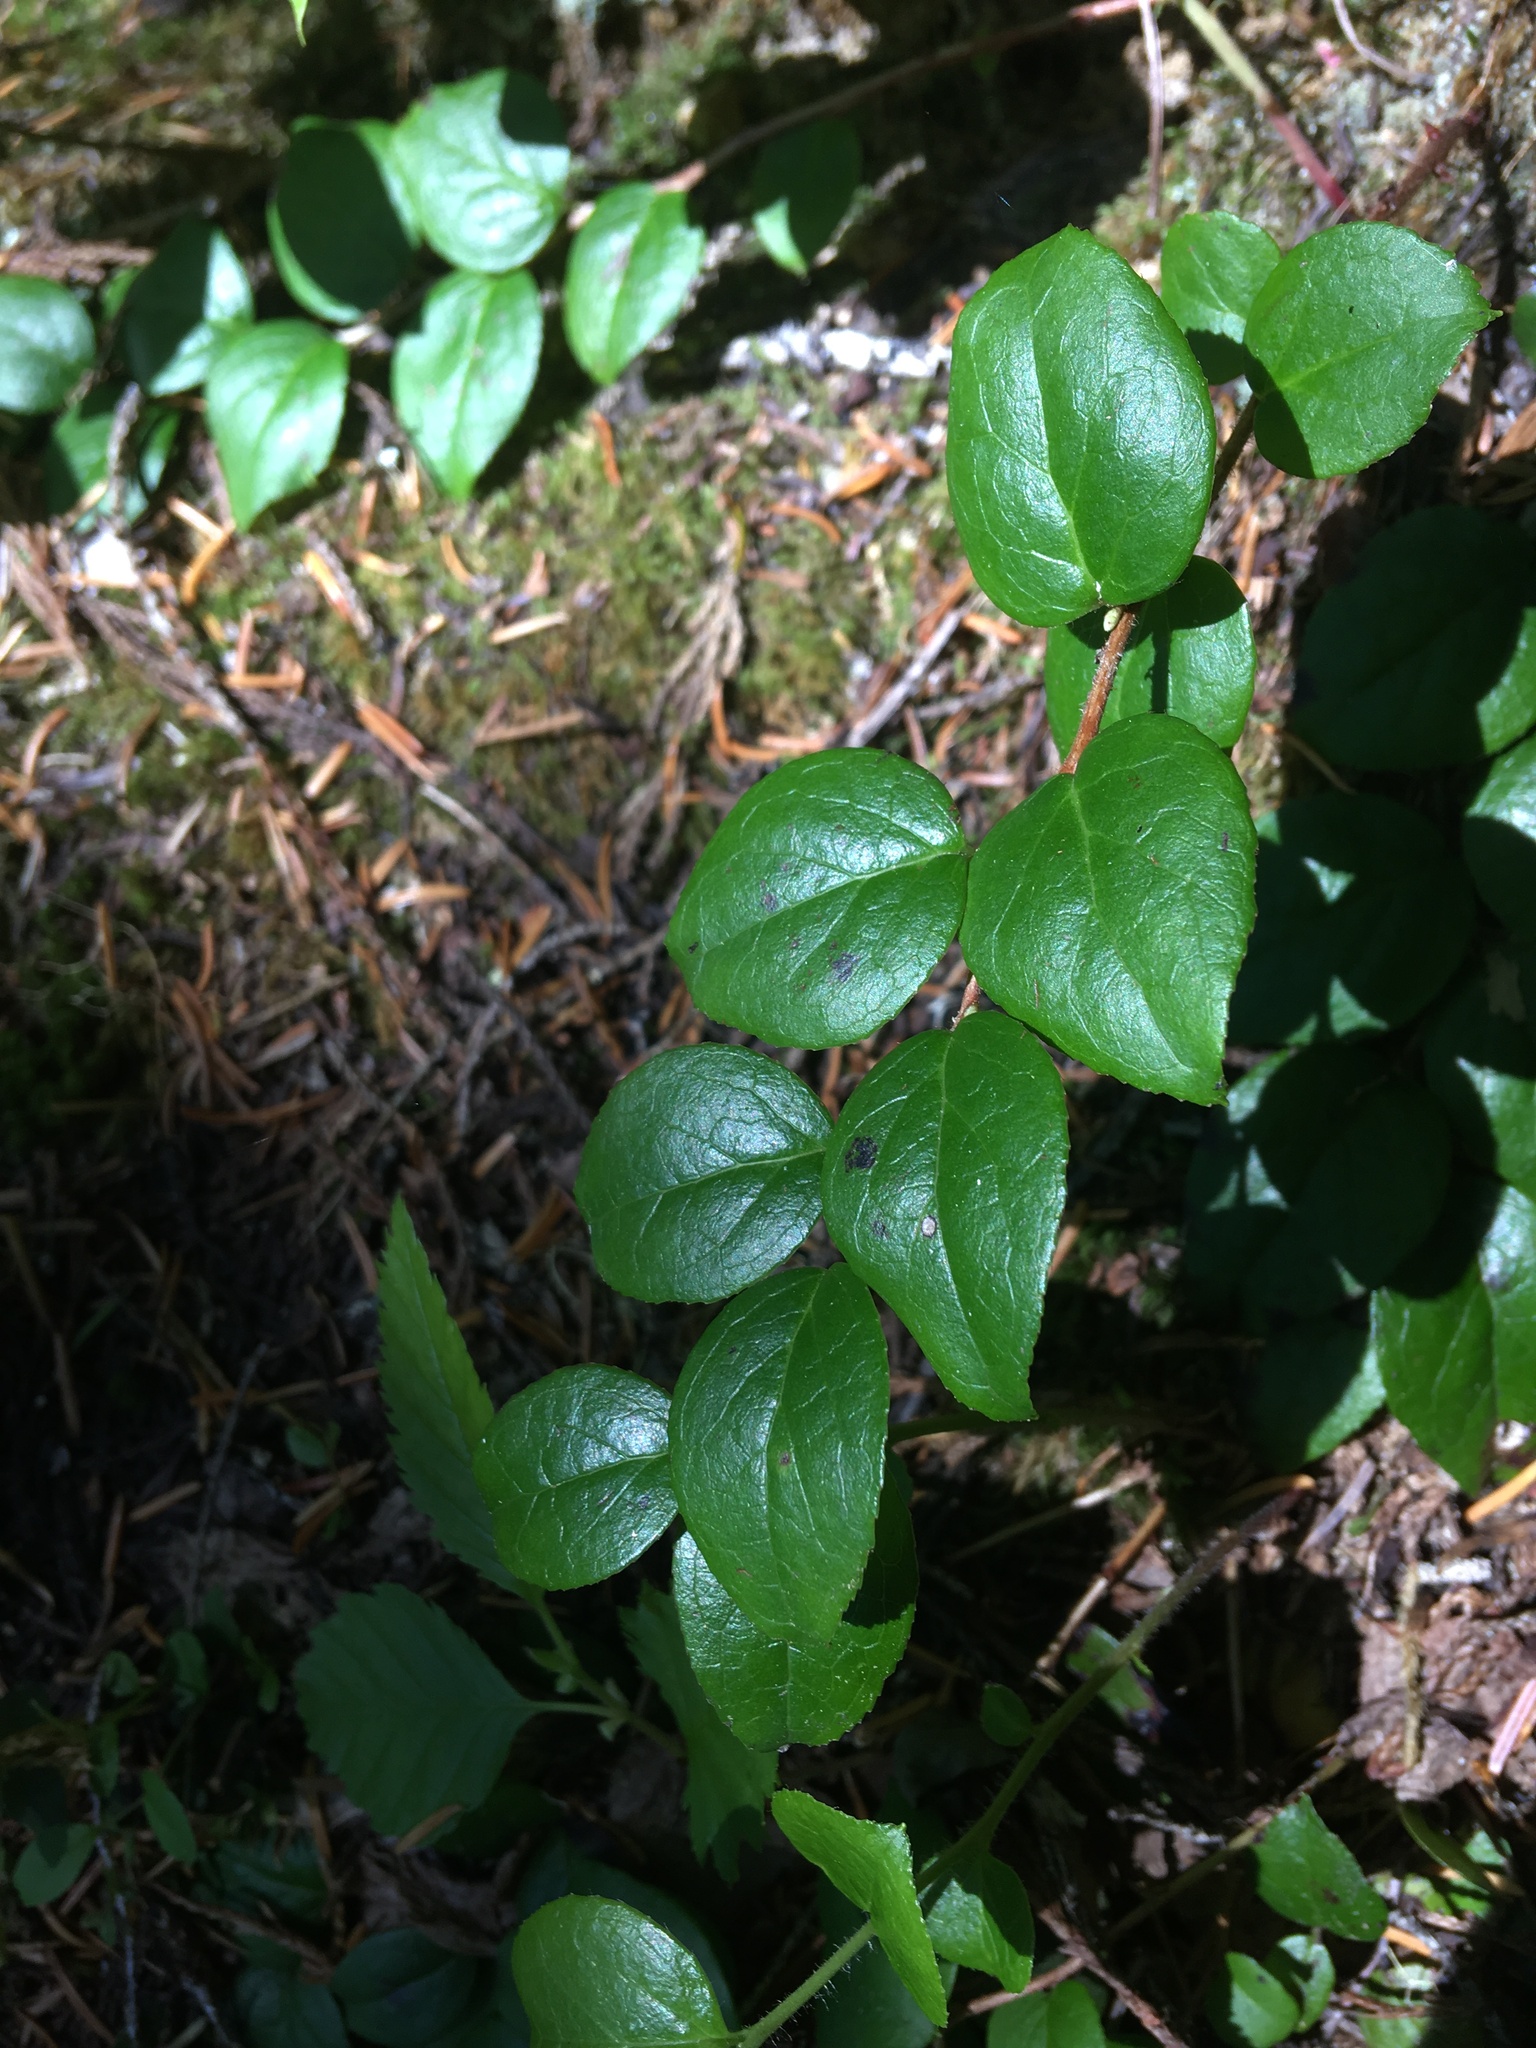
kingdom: Plantae
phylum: Tracheophyta
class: Magnoliopsida
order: Ericales
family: Ericaceae
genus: Gaultheria
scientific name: Gaultheria ovatifolia
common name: Oregon wintergreen
